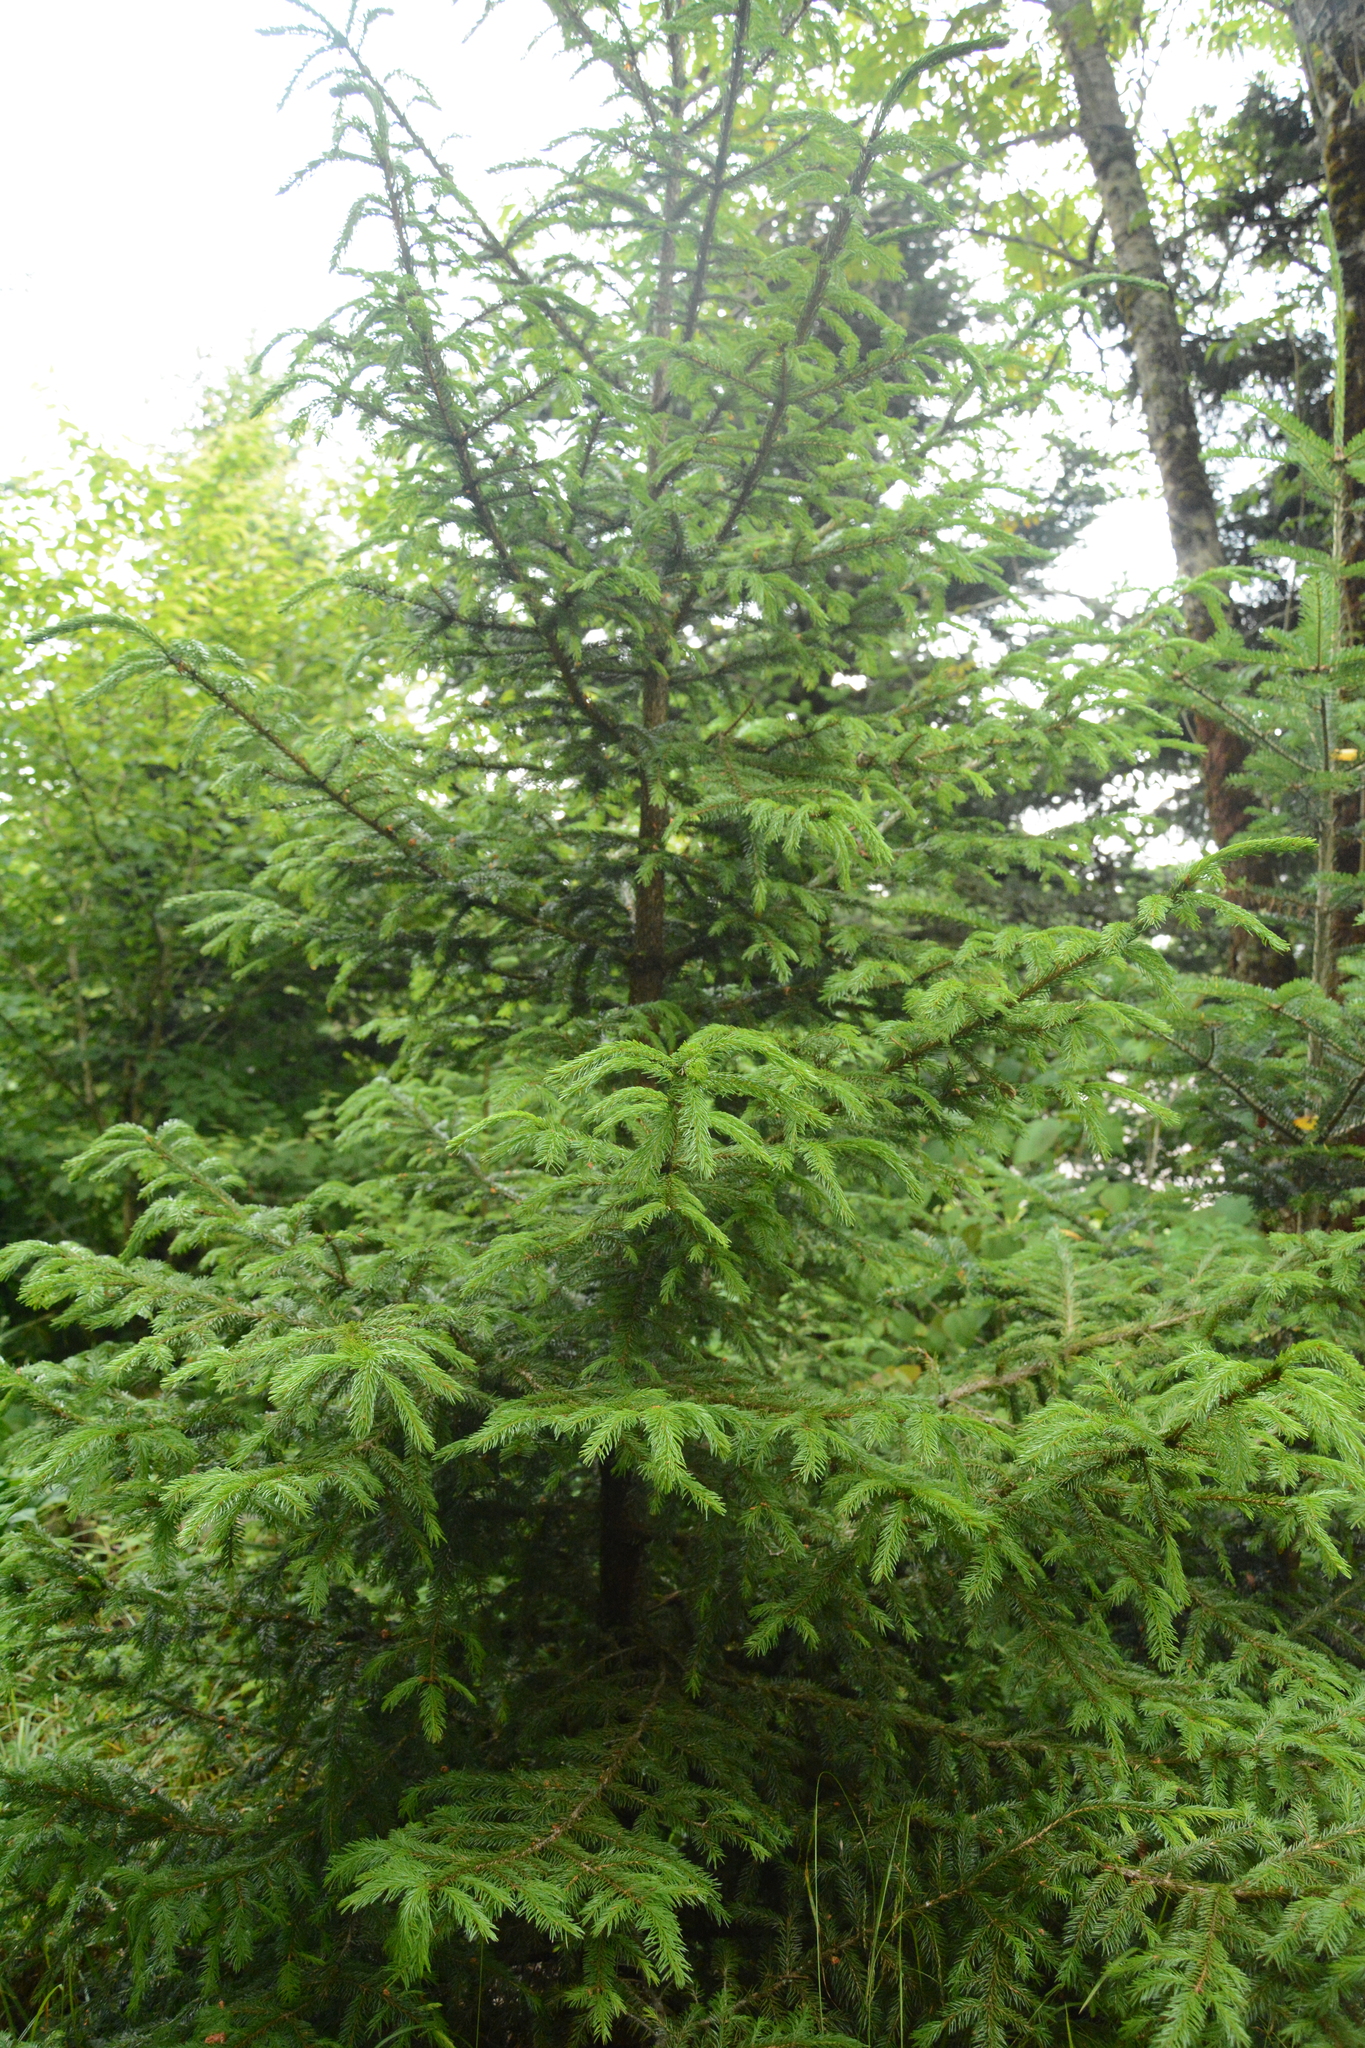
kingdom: Plantae
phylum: Tracheophyta
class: Pinopsida
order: Pinales
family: Pinaceae
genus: Picea
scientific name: Picea rubens
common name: Red spruce
